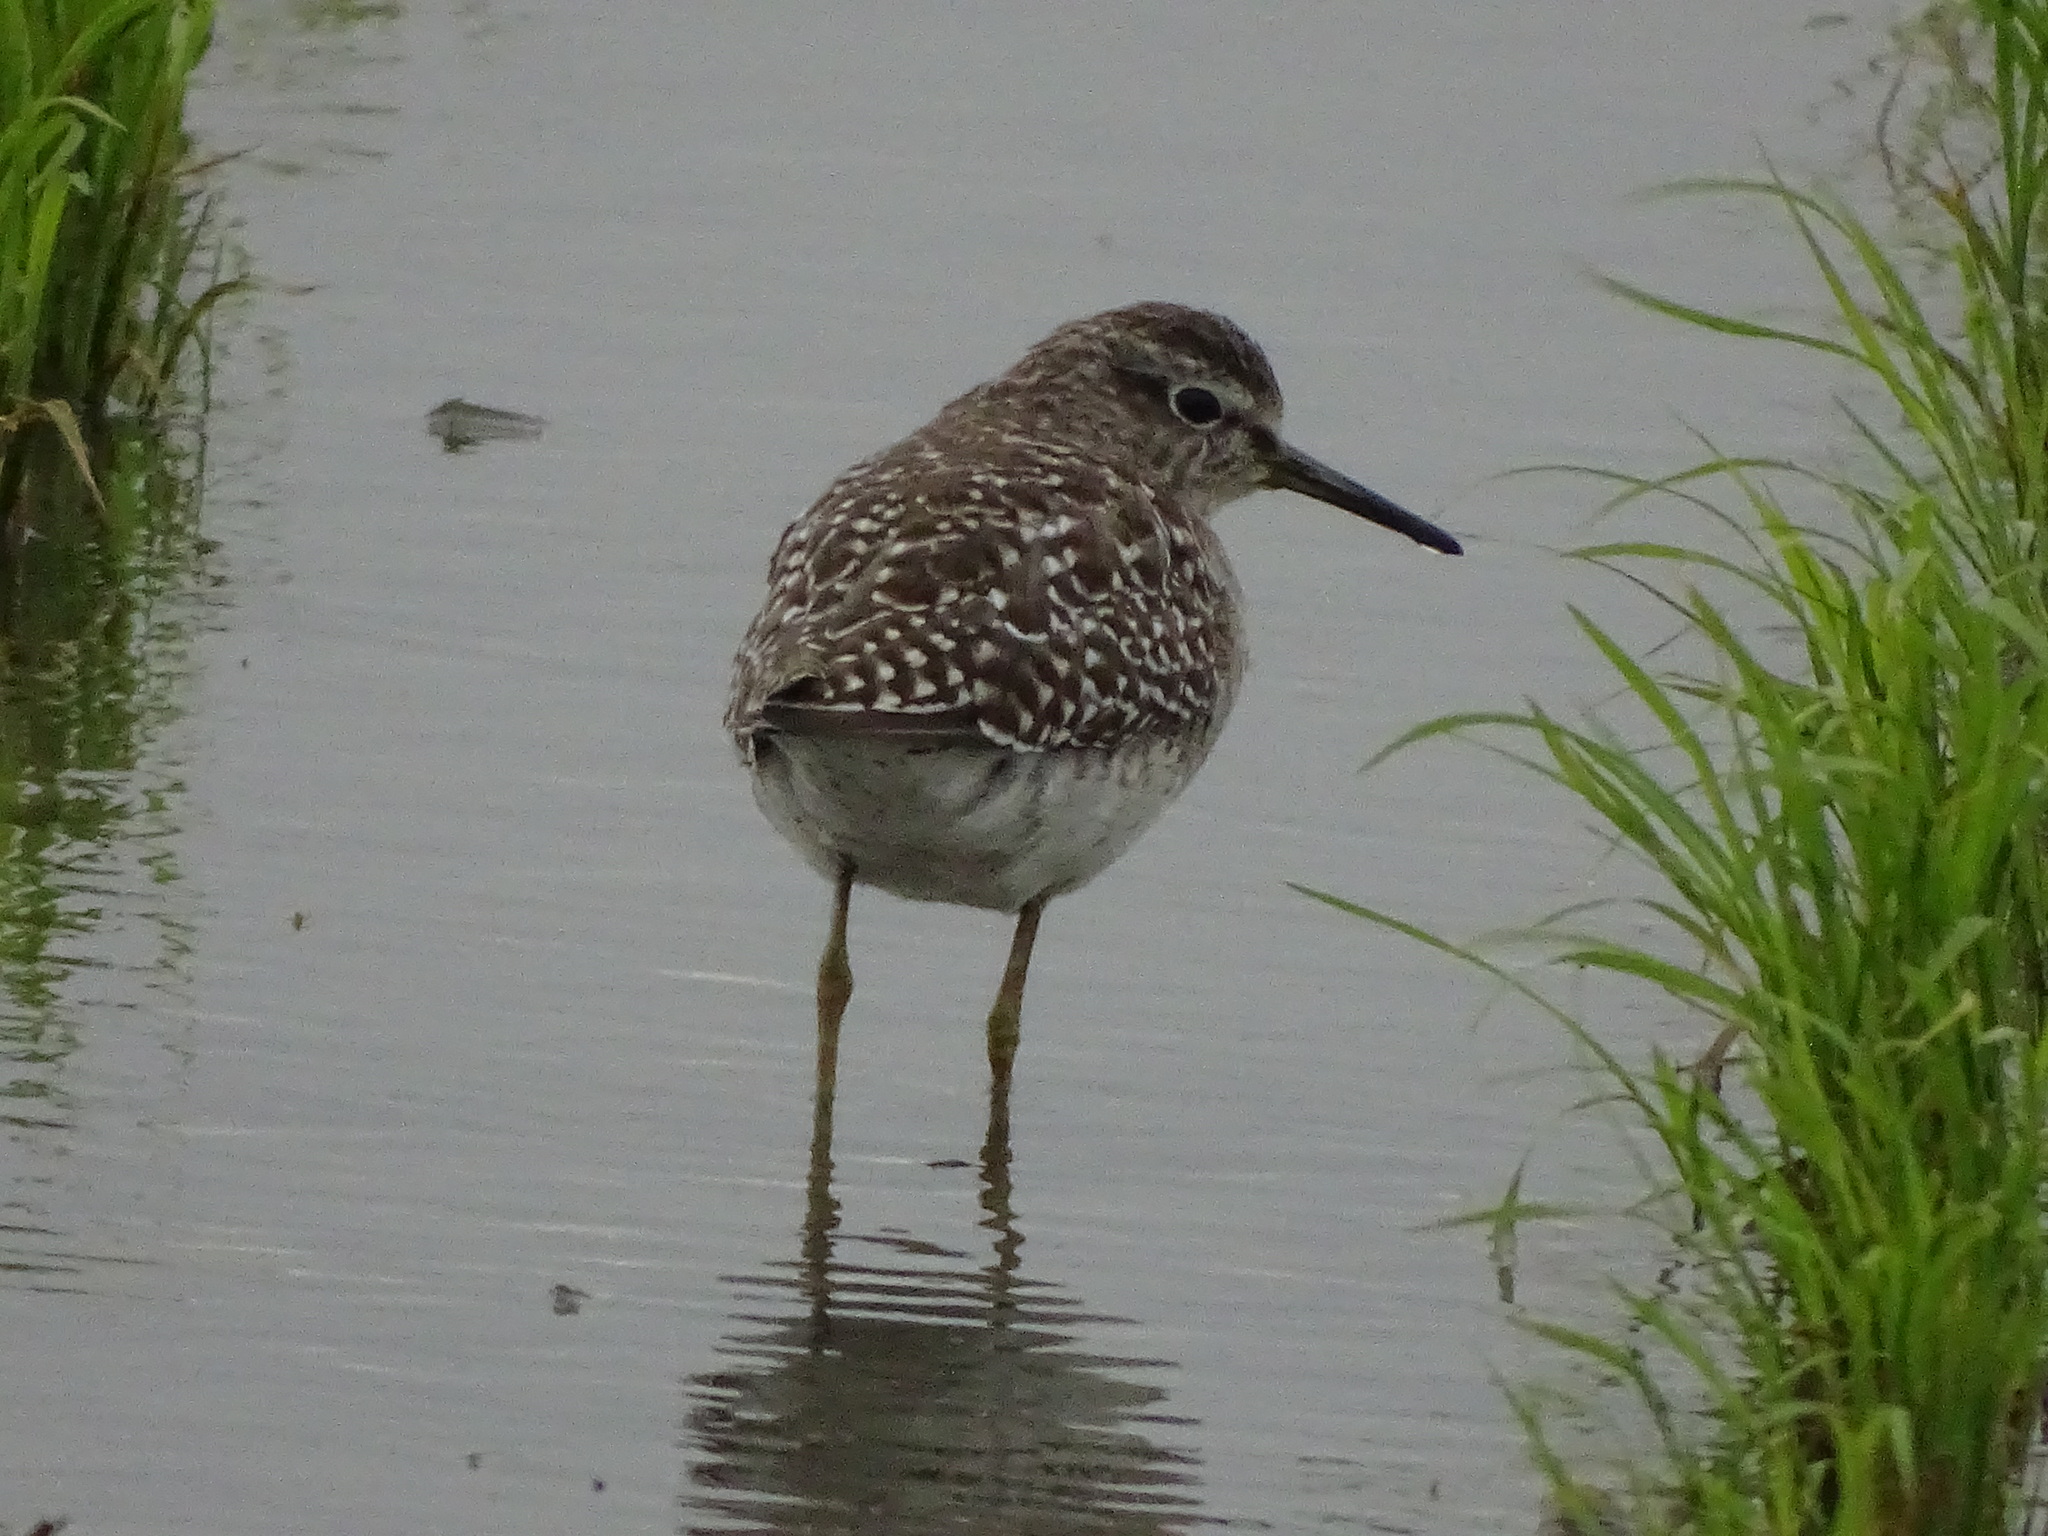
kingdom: Animalia
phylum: Chordata
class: Aves
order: Charadriiformes
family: Scolopacidae
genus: Tringa
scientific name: Tringa glareola
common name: Wood sandpiper
